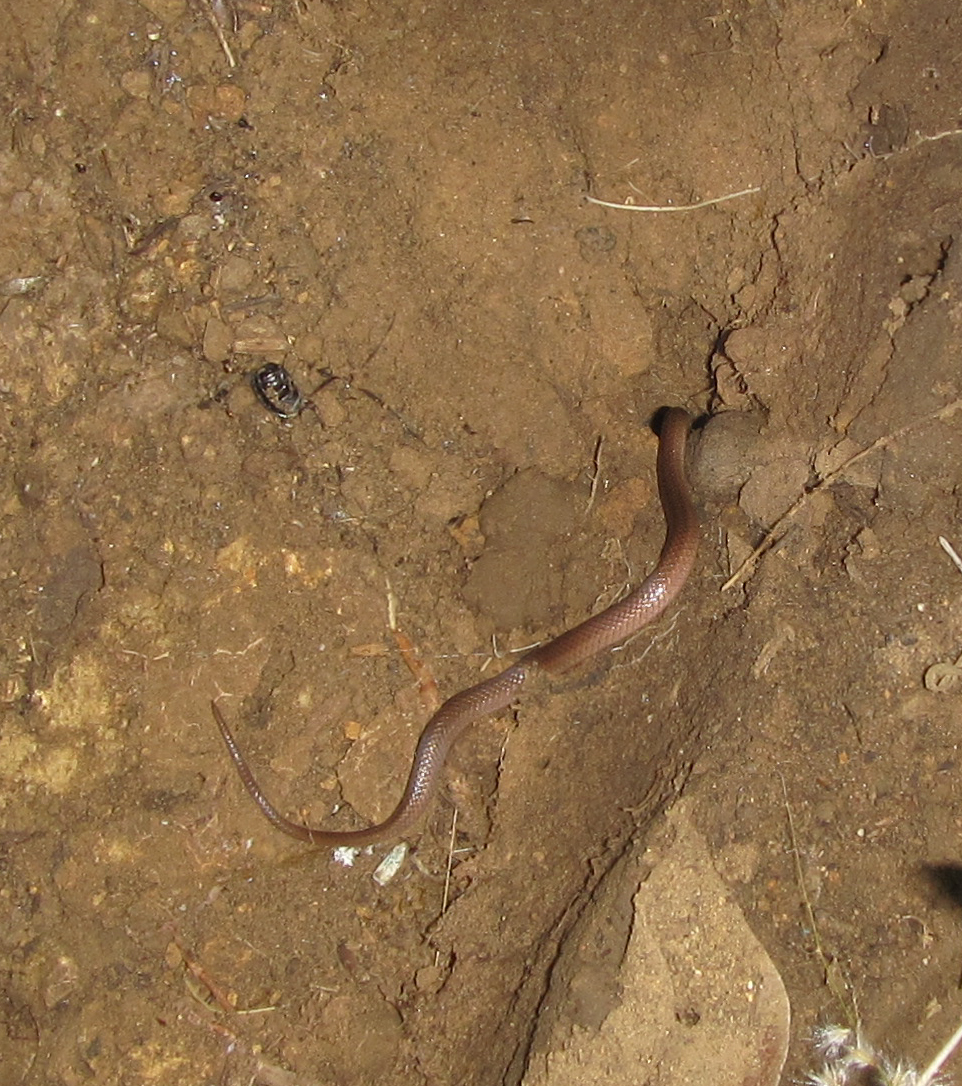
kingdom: Animalia
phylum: Chordata
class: Squamata
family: Atractaspididae
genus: Aparallactus
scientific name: Aparallactus capensis
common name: Cape centipede eater
